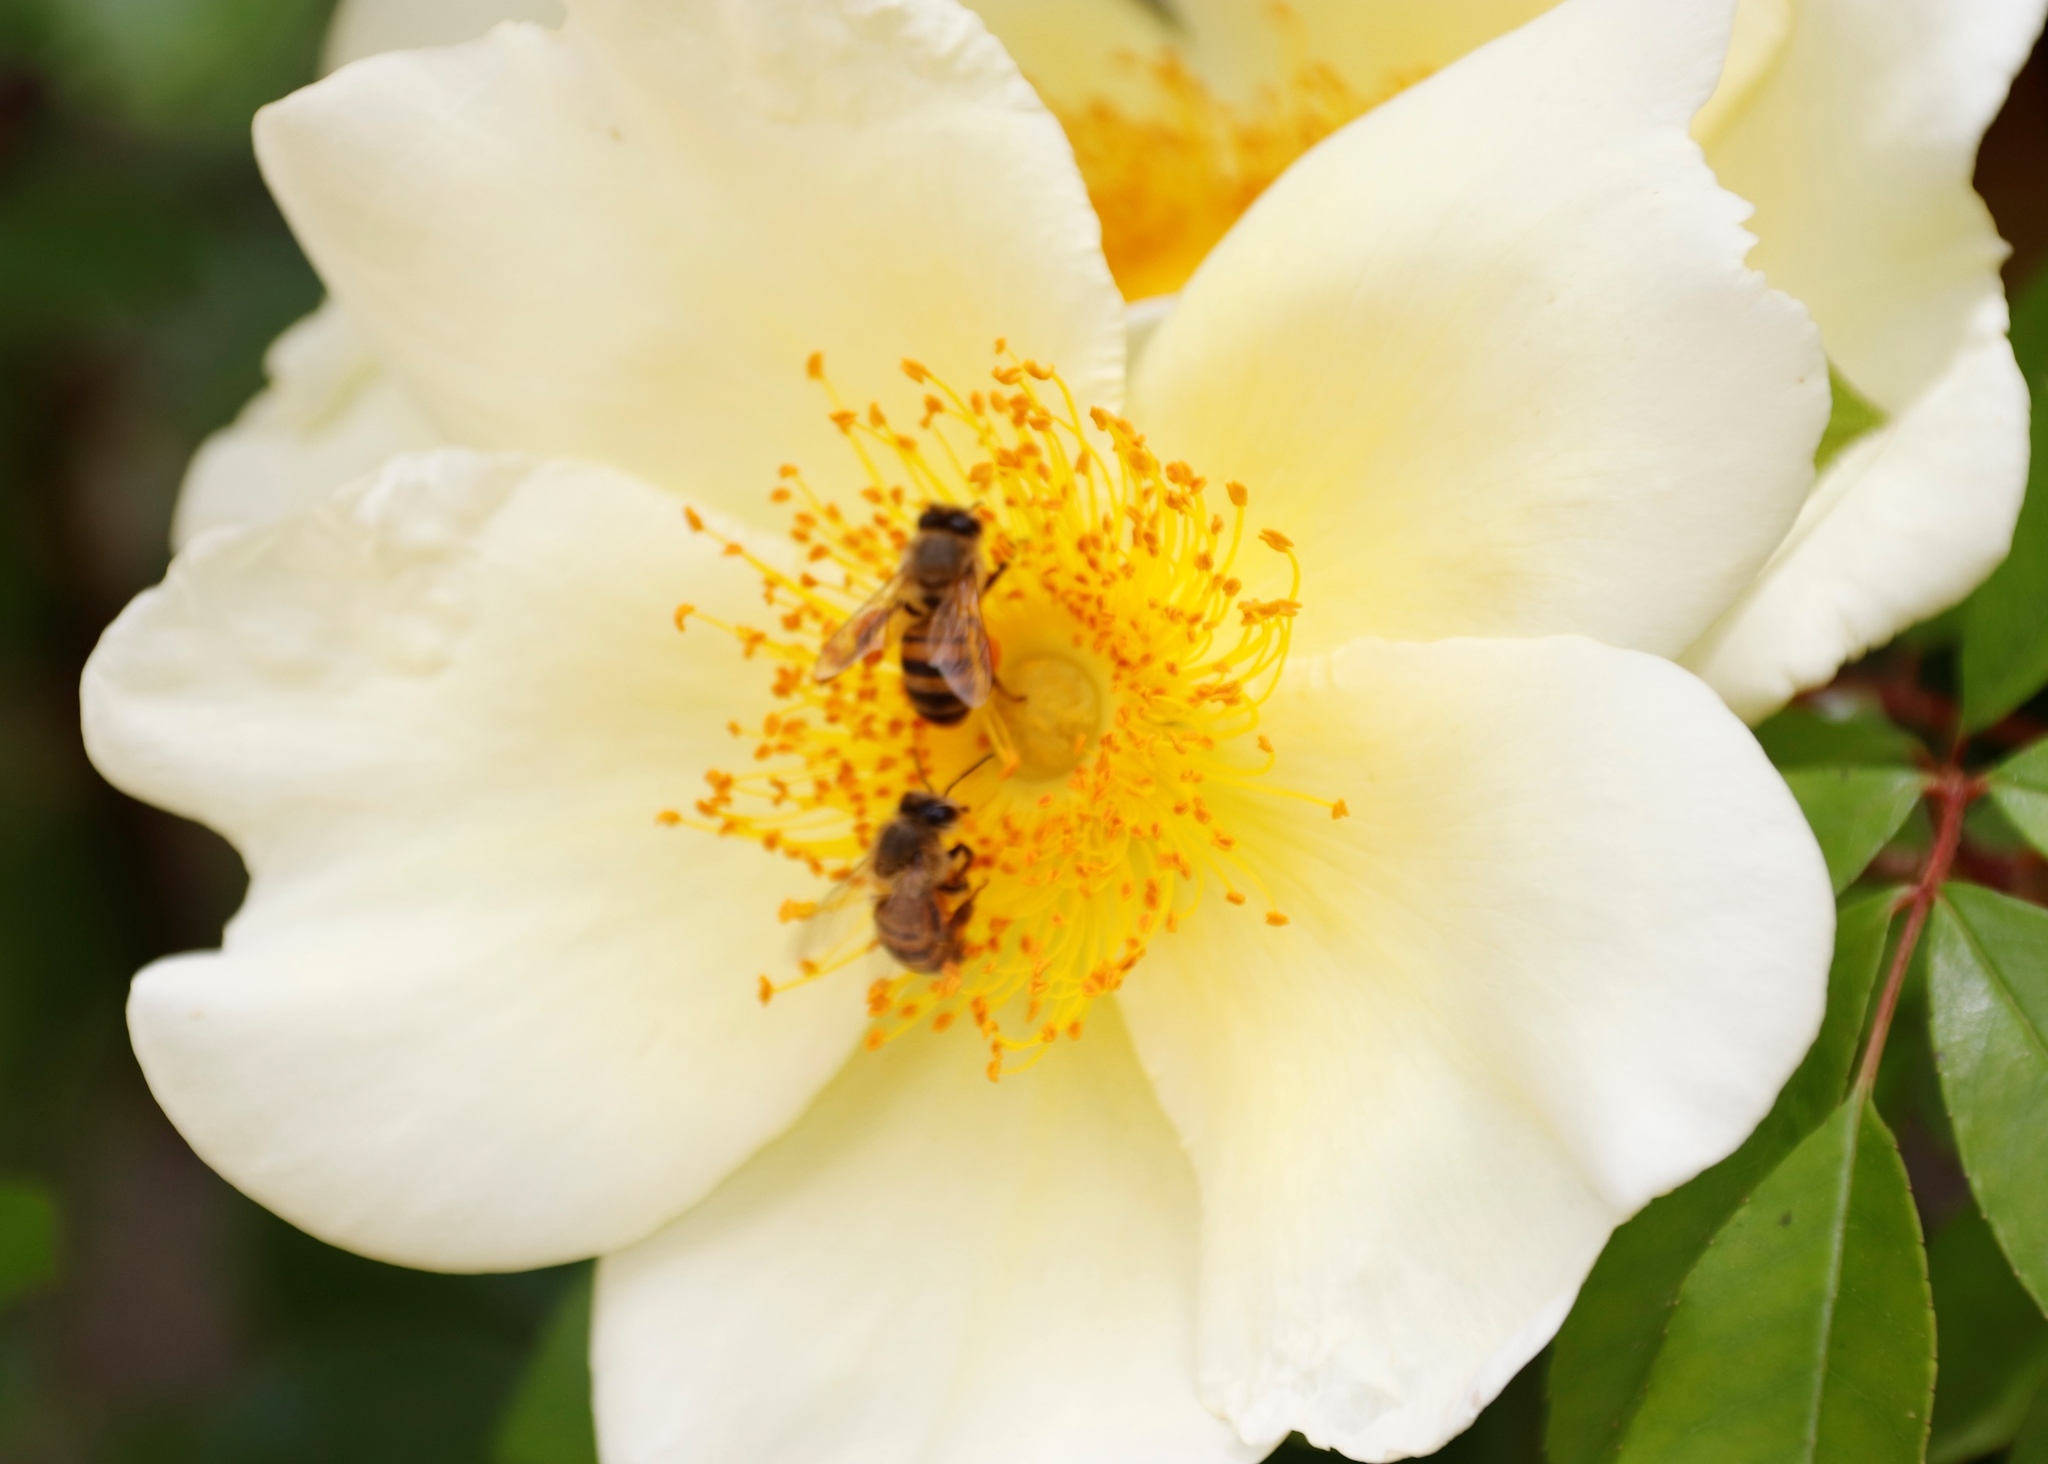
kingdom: Animalia
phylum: Arthropoda
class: Insecta
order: Hymenoptera
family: Apidae
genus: Apis
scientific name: Apis mellifera
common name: Honey bee
